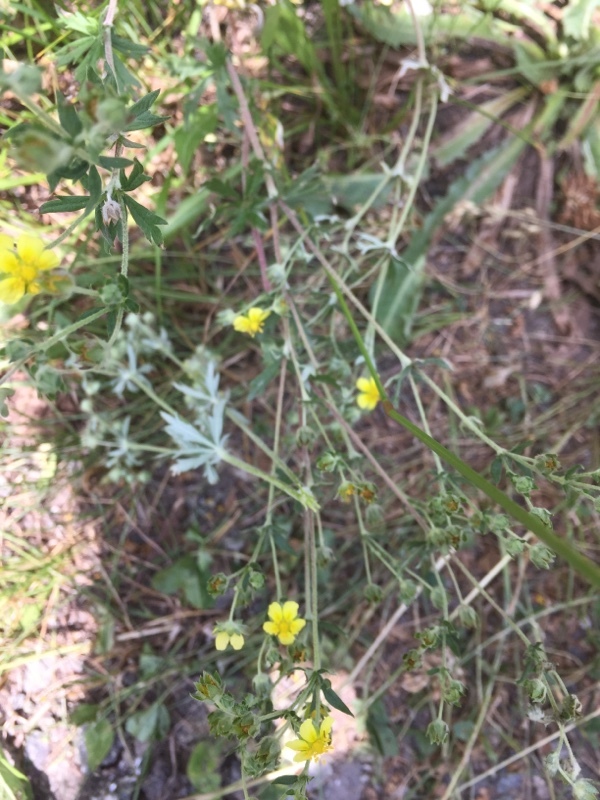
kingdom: Plantae
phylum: Tracheophyta
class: Magnoliopsida
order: Rosales
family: Rosaceae
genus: Potentilla
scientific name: Potentilla argentea
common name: Hoary cinquefoil
